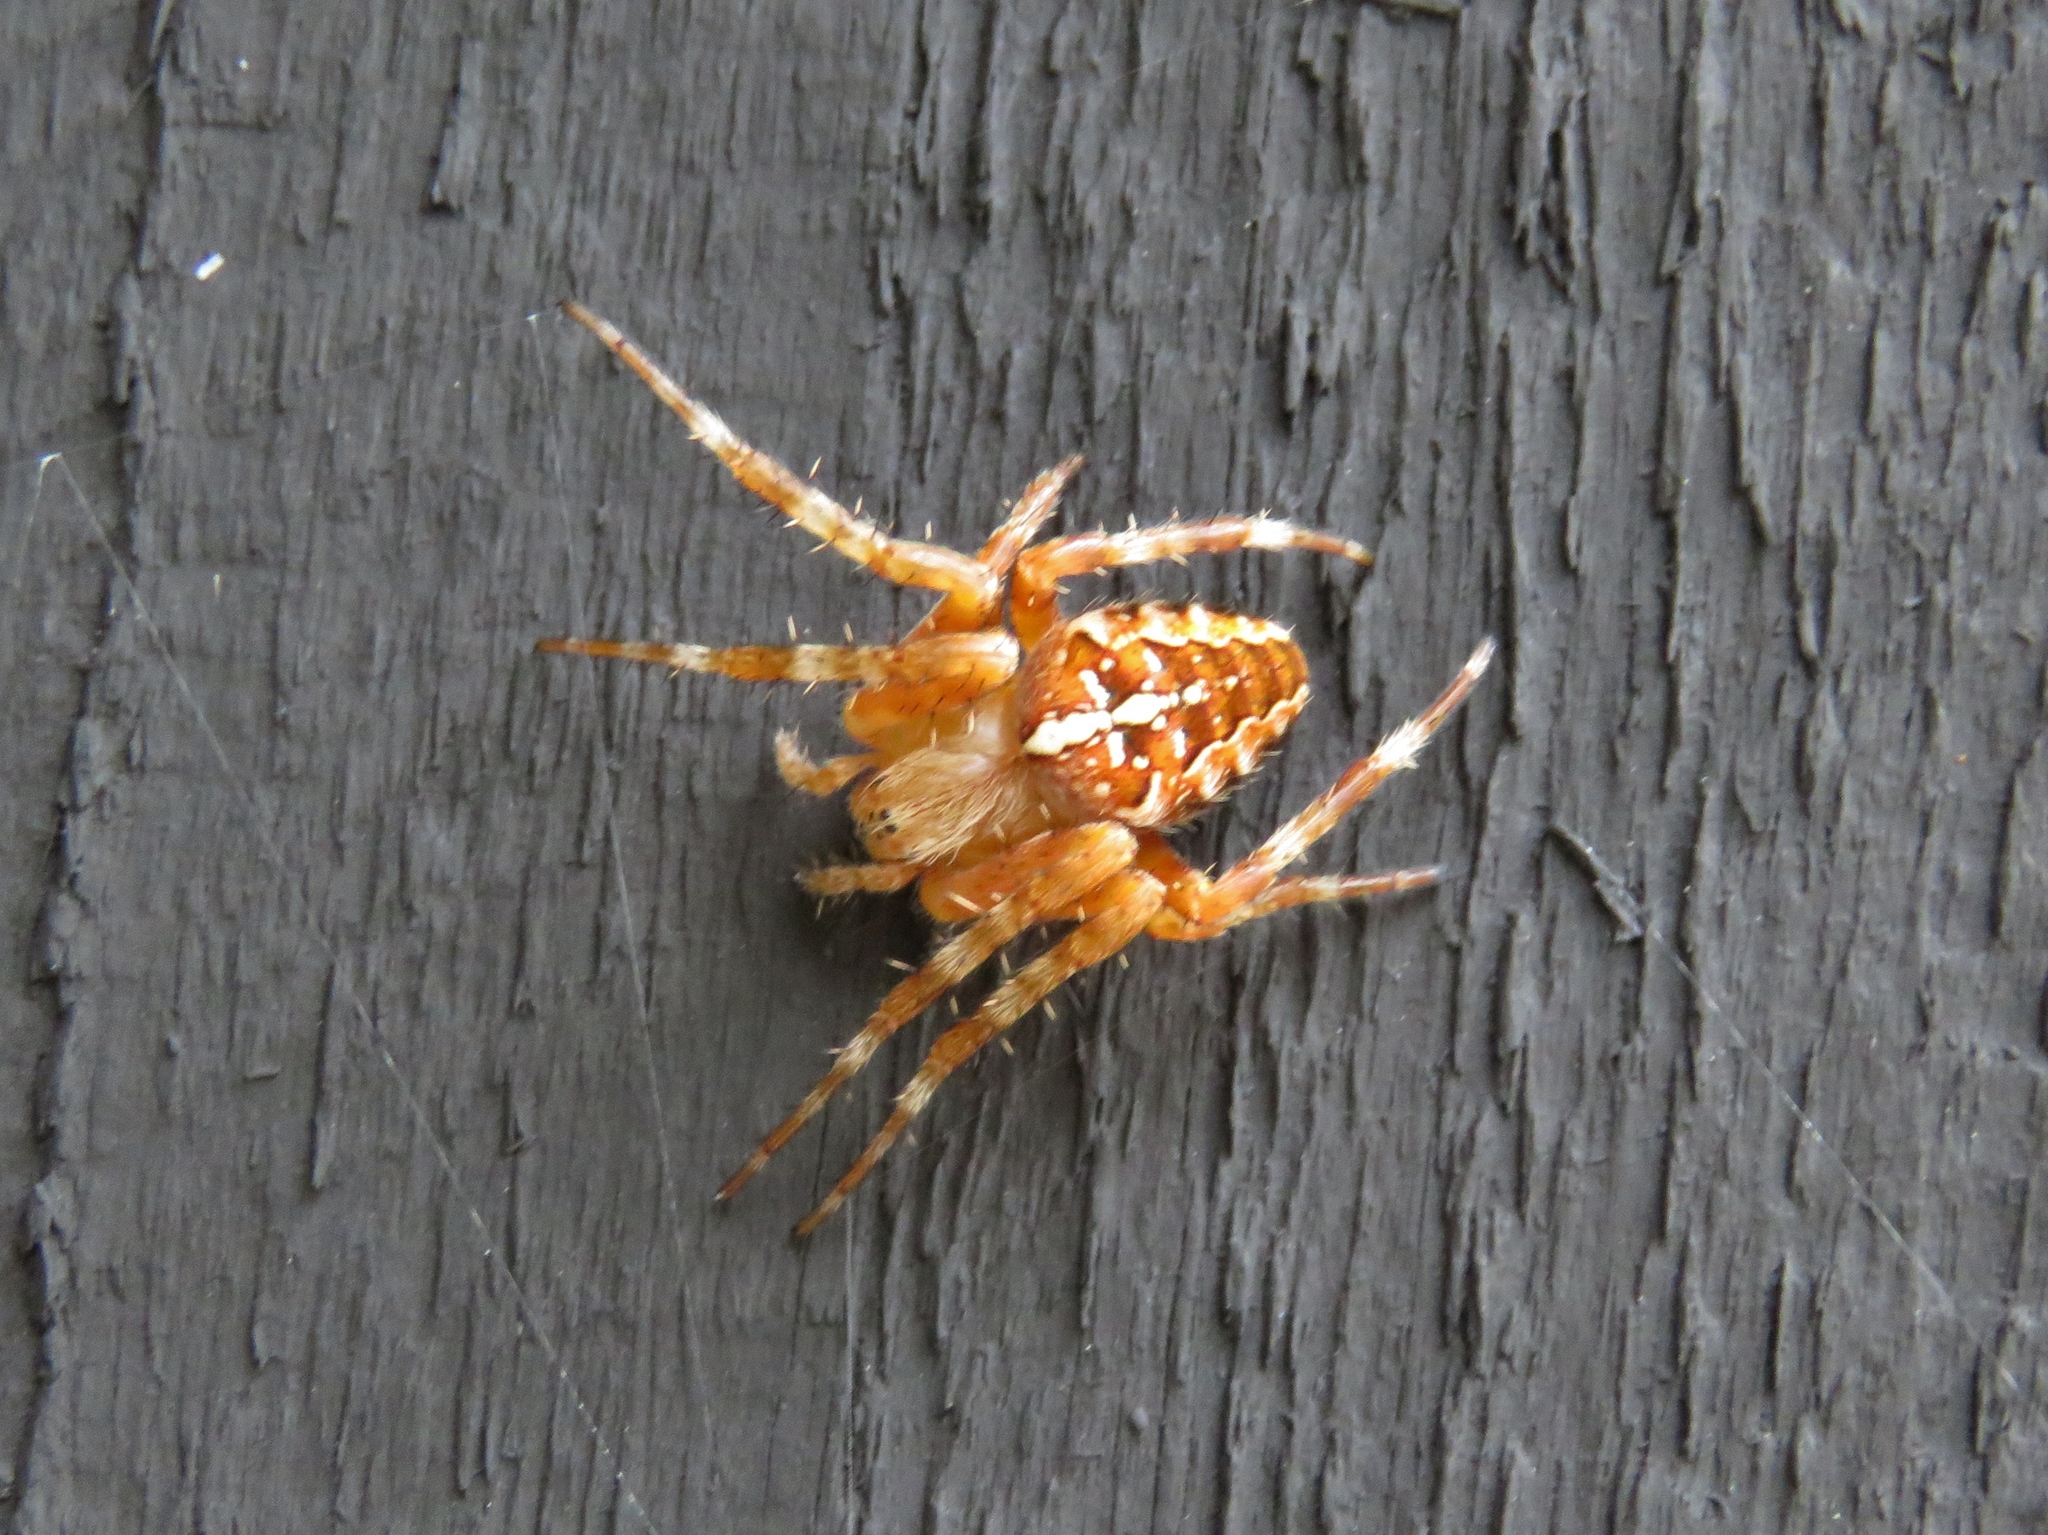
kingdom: Animalia
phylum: Arthropoda
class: Arachnida
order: Araneae
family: Araneidae
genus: Araneus
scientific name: Araneus diadematus
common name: Cross orbweaver
